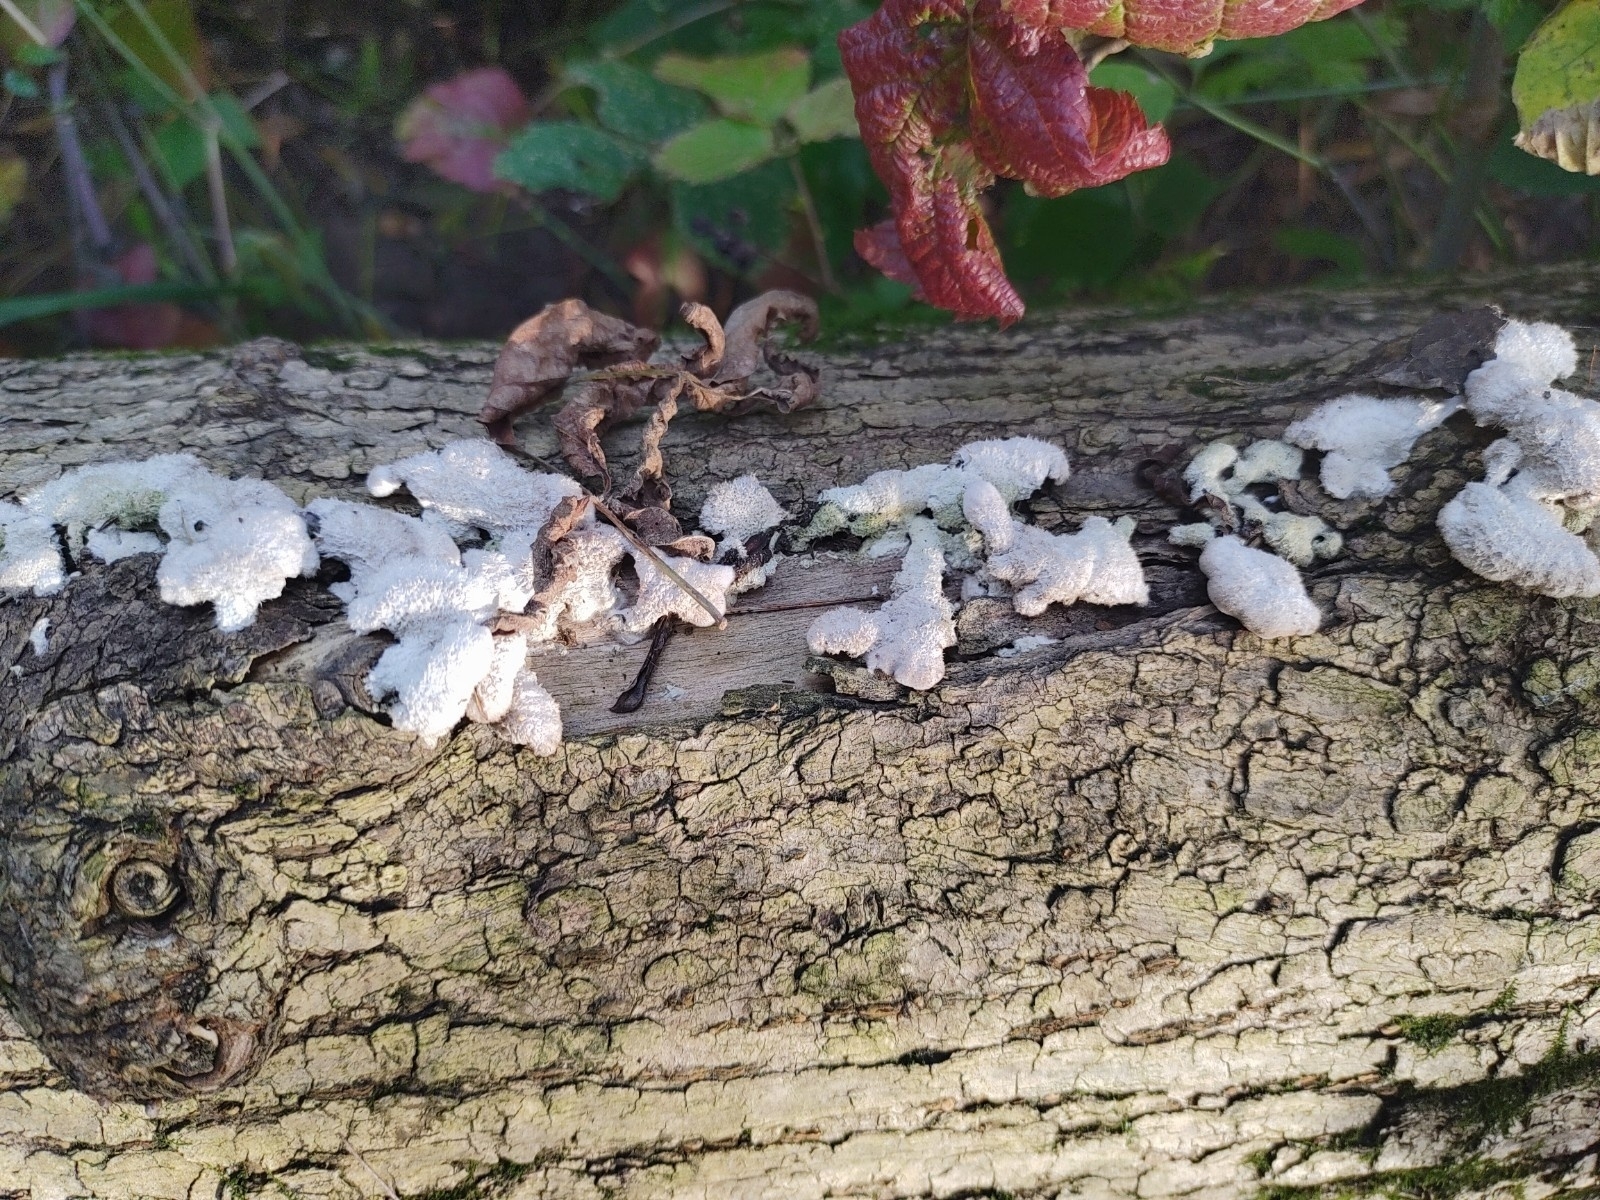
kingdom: Fungi
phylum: Basidiomycota
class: Agaricomycetes
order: Agaricales
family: Schizophyllaceae
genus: Schizophyllum
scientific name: Schizophyllum commune
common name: Common porecrust
